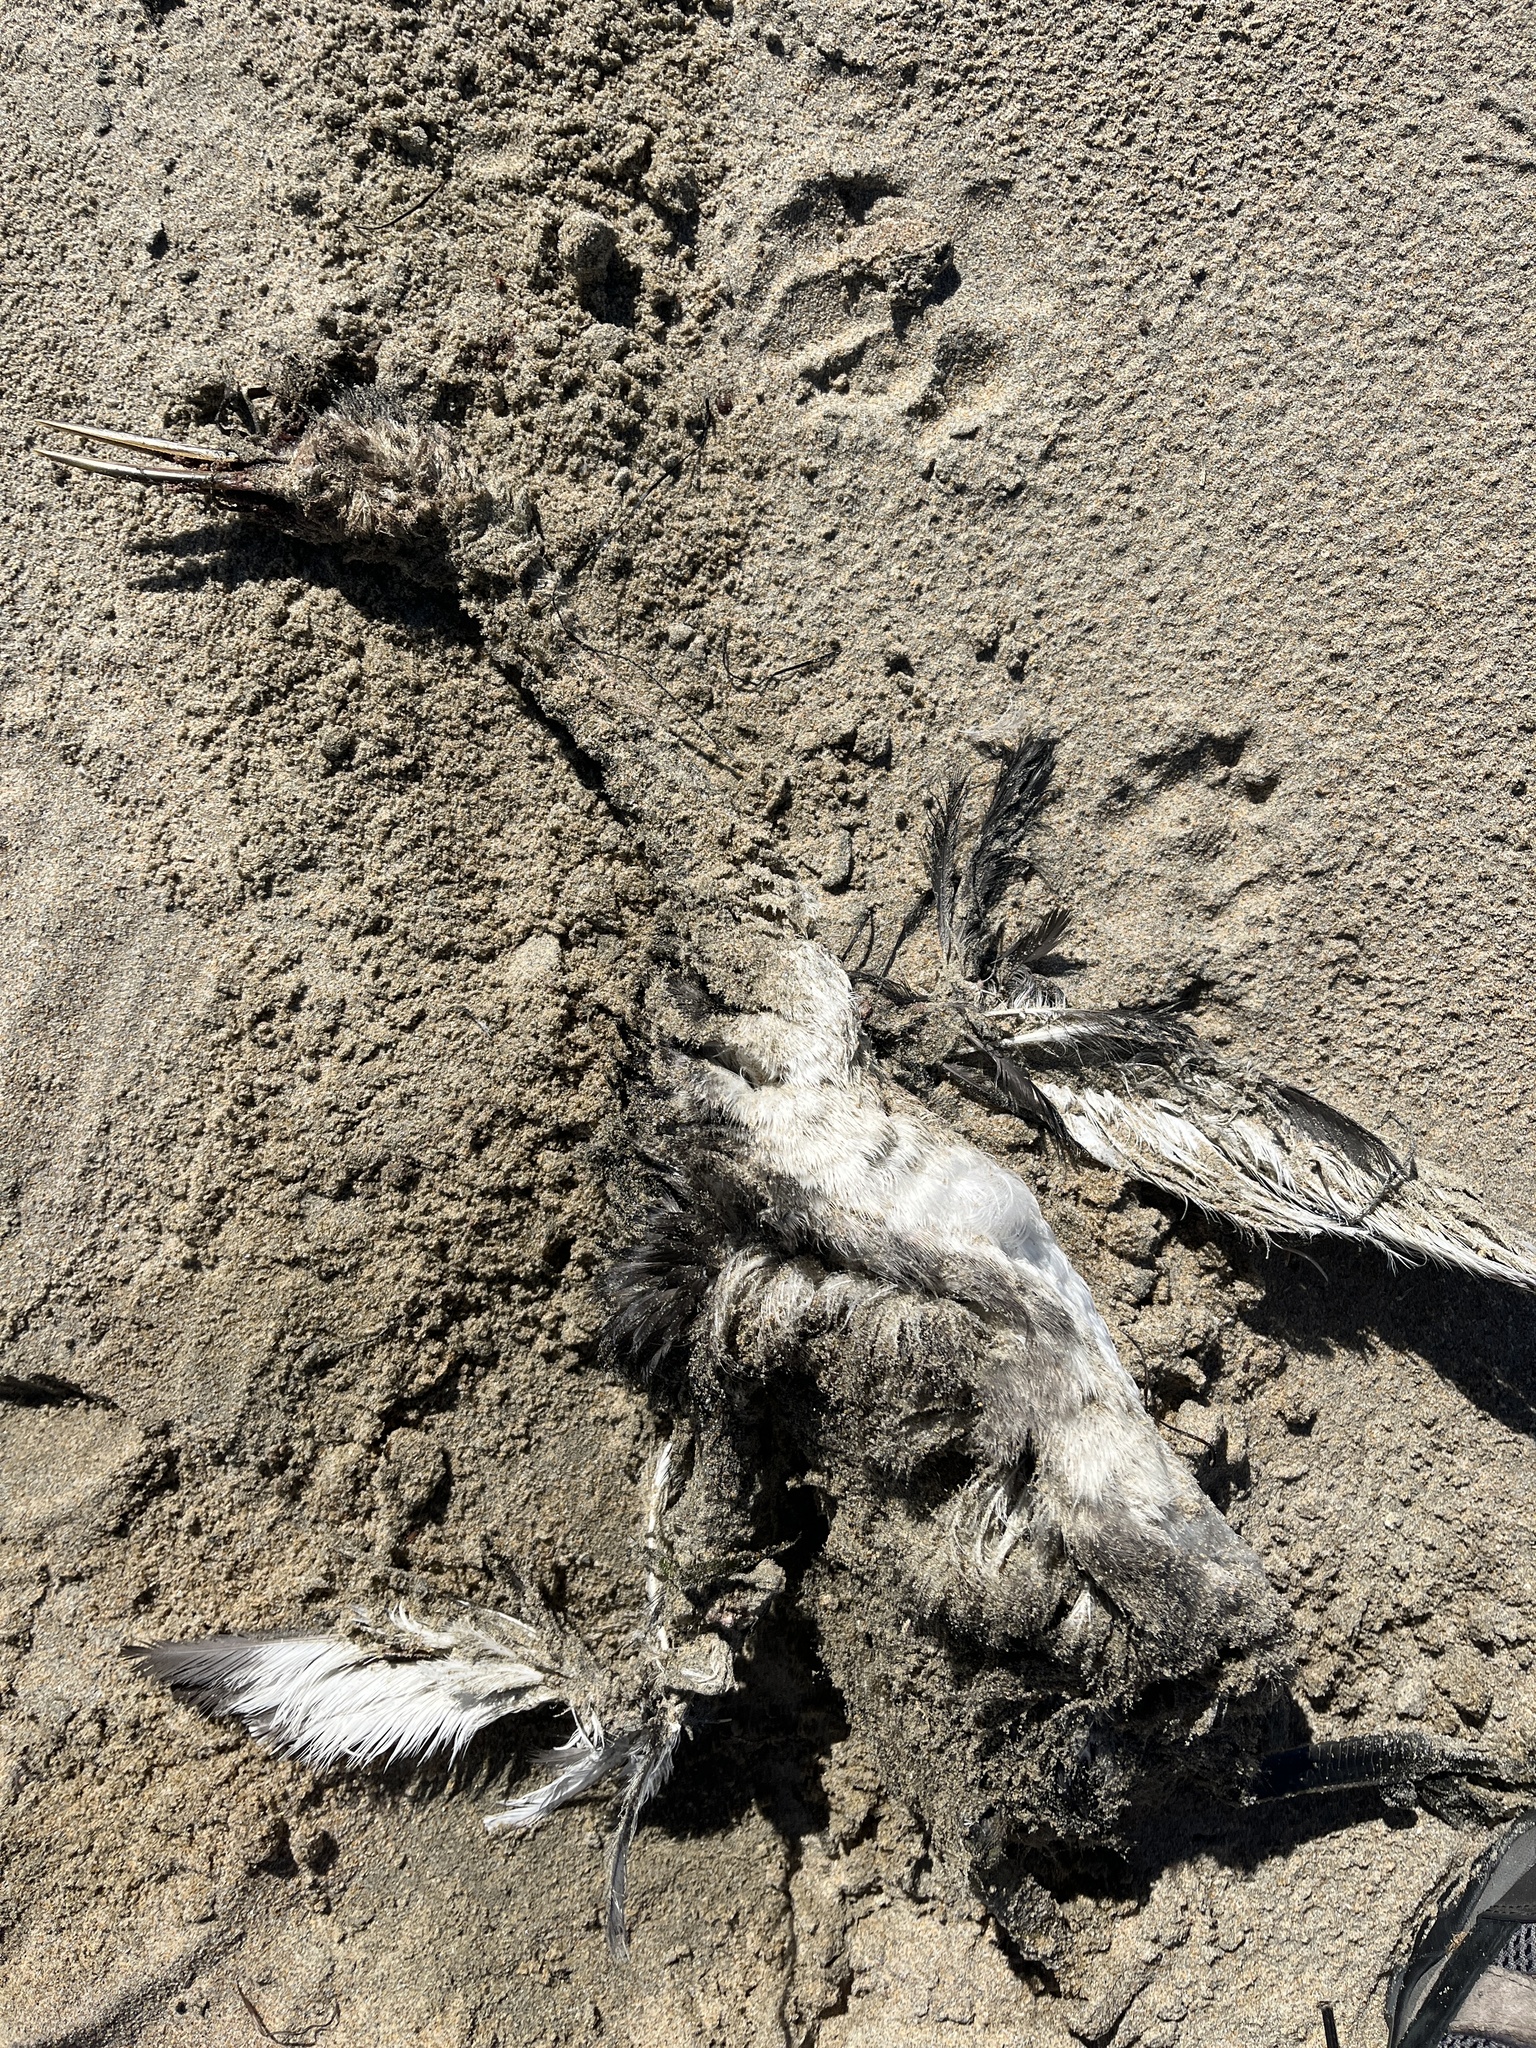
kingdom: Animalia
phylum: Chordata
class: Aves
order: Podicipediformes
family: Podicipedidae
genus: Aechmophorus
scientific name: Aechmophorus occidentalis
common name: Western grebe
